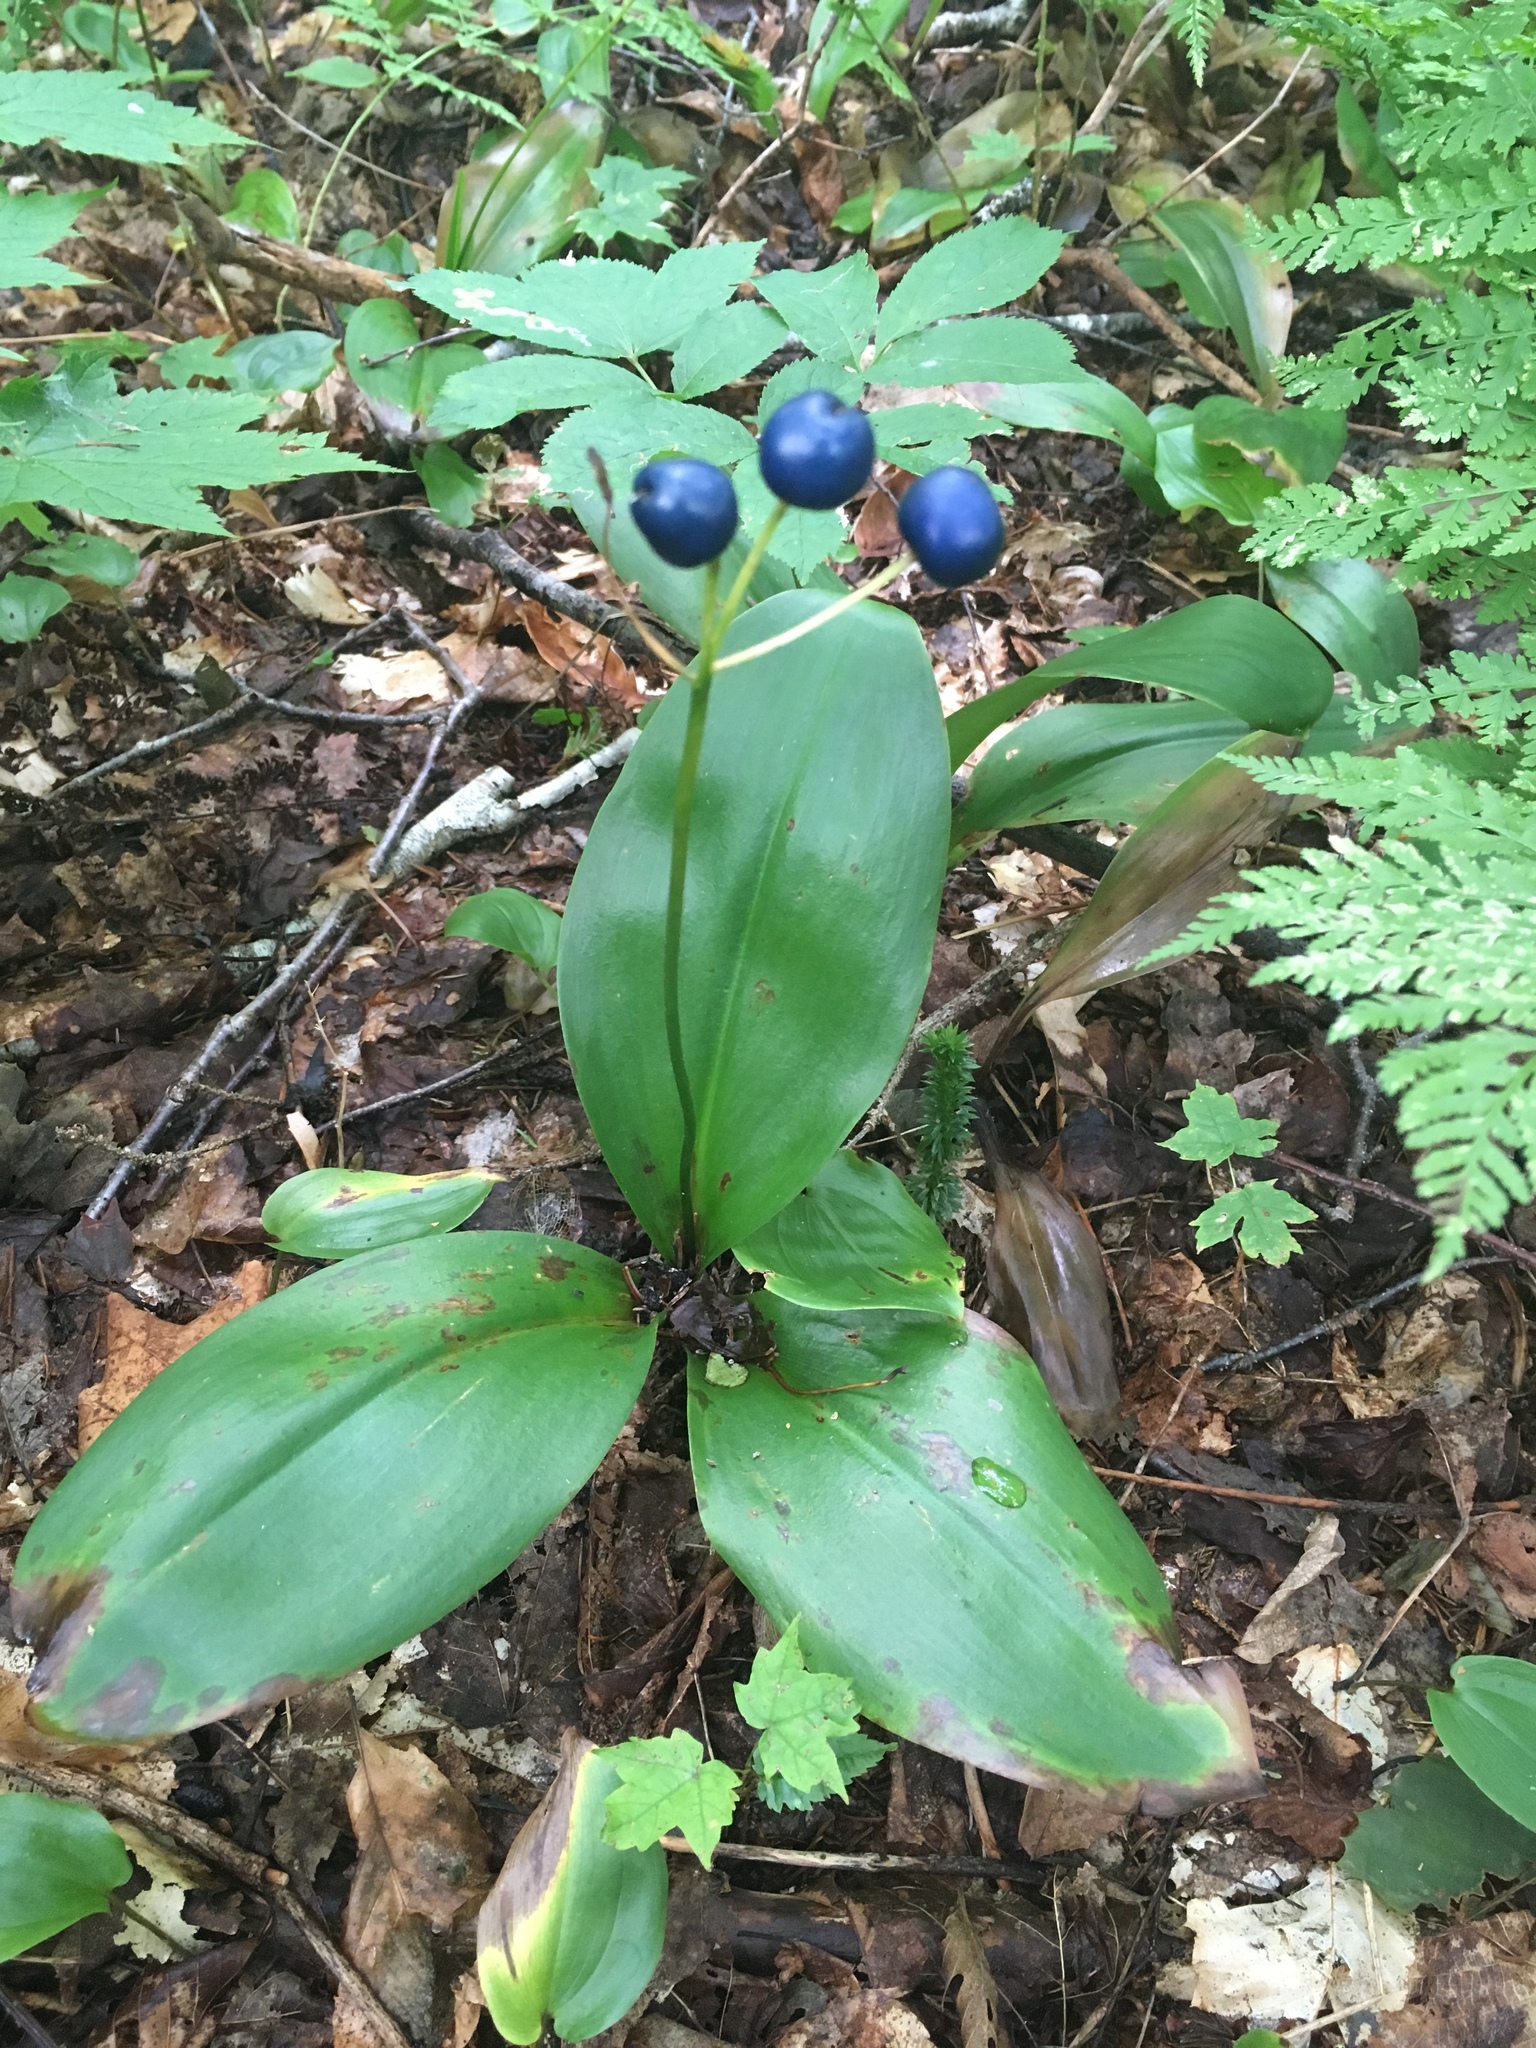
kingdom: Plantae
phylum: Tracheophyta
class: Liliopsida
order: Liliales
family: Liliaceae
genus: Clintonia
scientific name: Clintonia borealis
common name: Yellow clintonia
